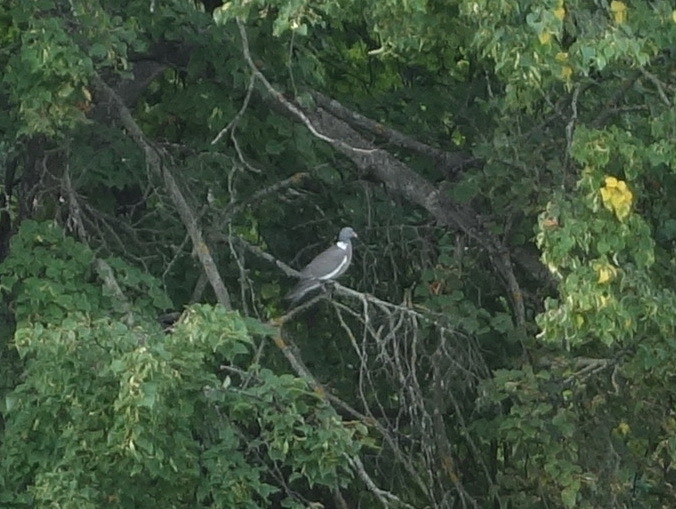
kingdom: Animalia
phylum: Chordata
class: Aves
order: Columbiformes
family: Columbidae
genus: Columba
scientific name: Columba palumbus
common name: Common wood pigeon
